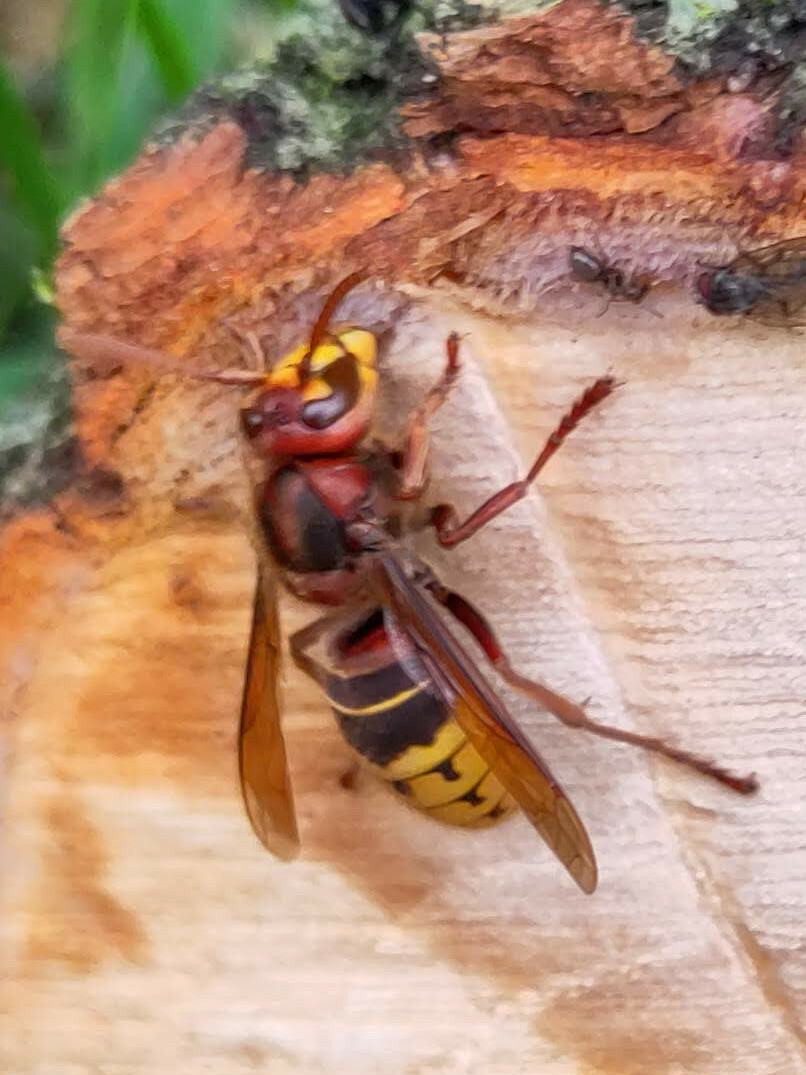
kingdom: Animalia
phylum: Arthropoda
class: Insecta
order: Hymenoptera
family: Vespidae
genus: Vespa
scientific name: Vespa crabro
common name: Hornet
